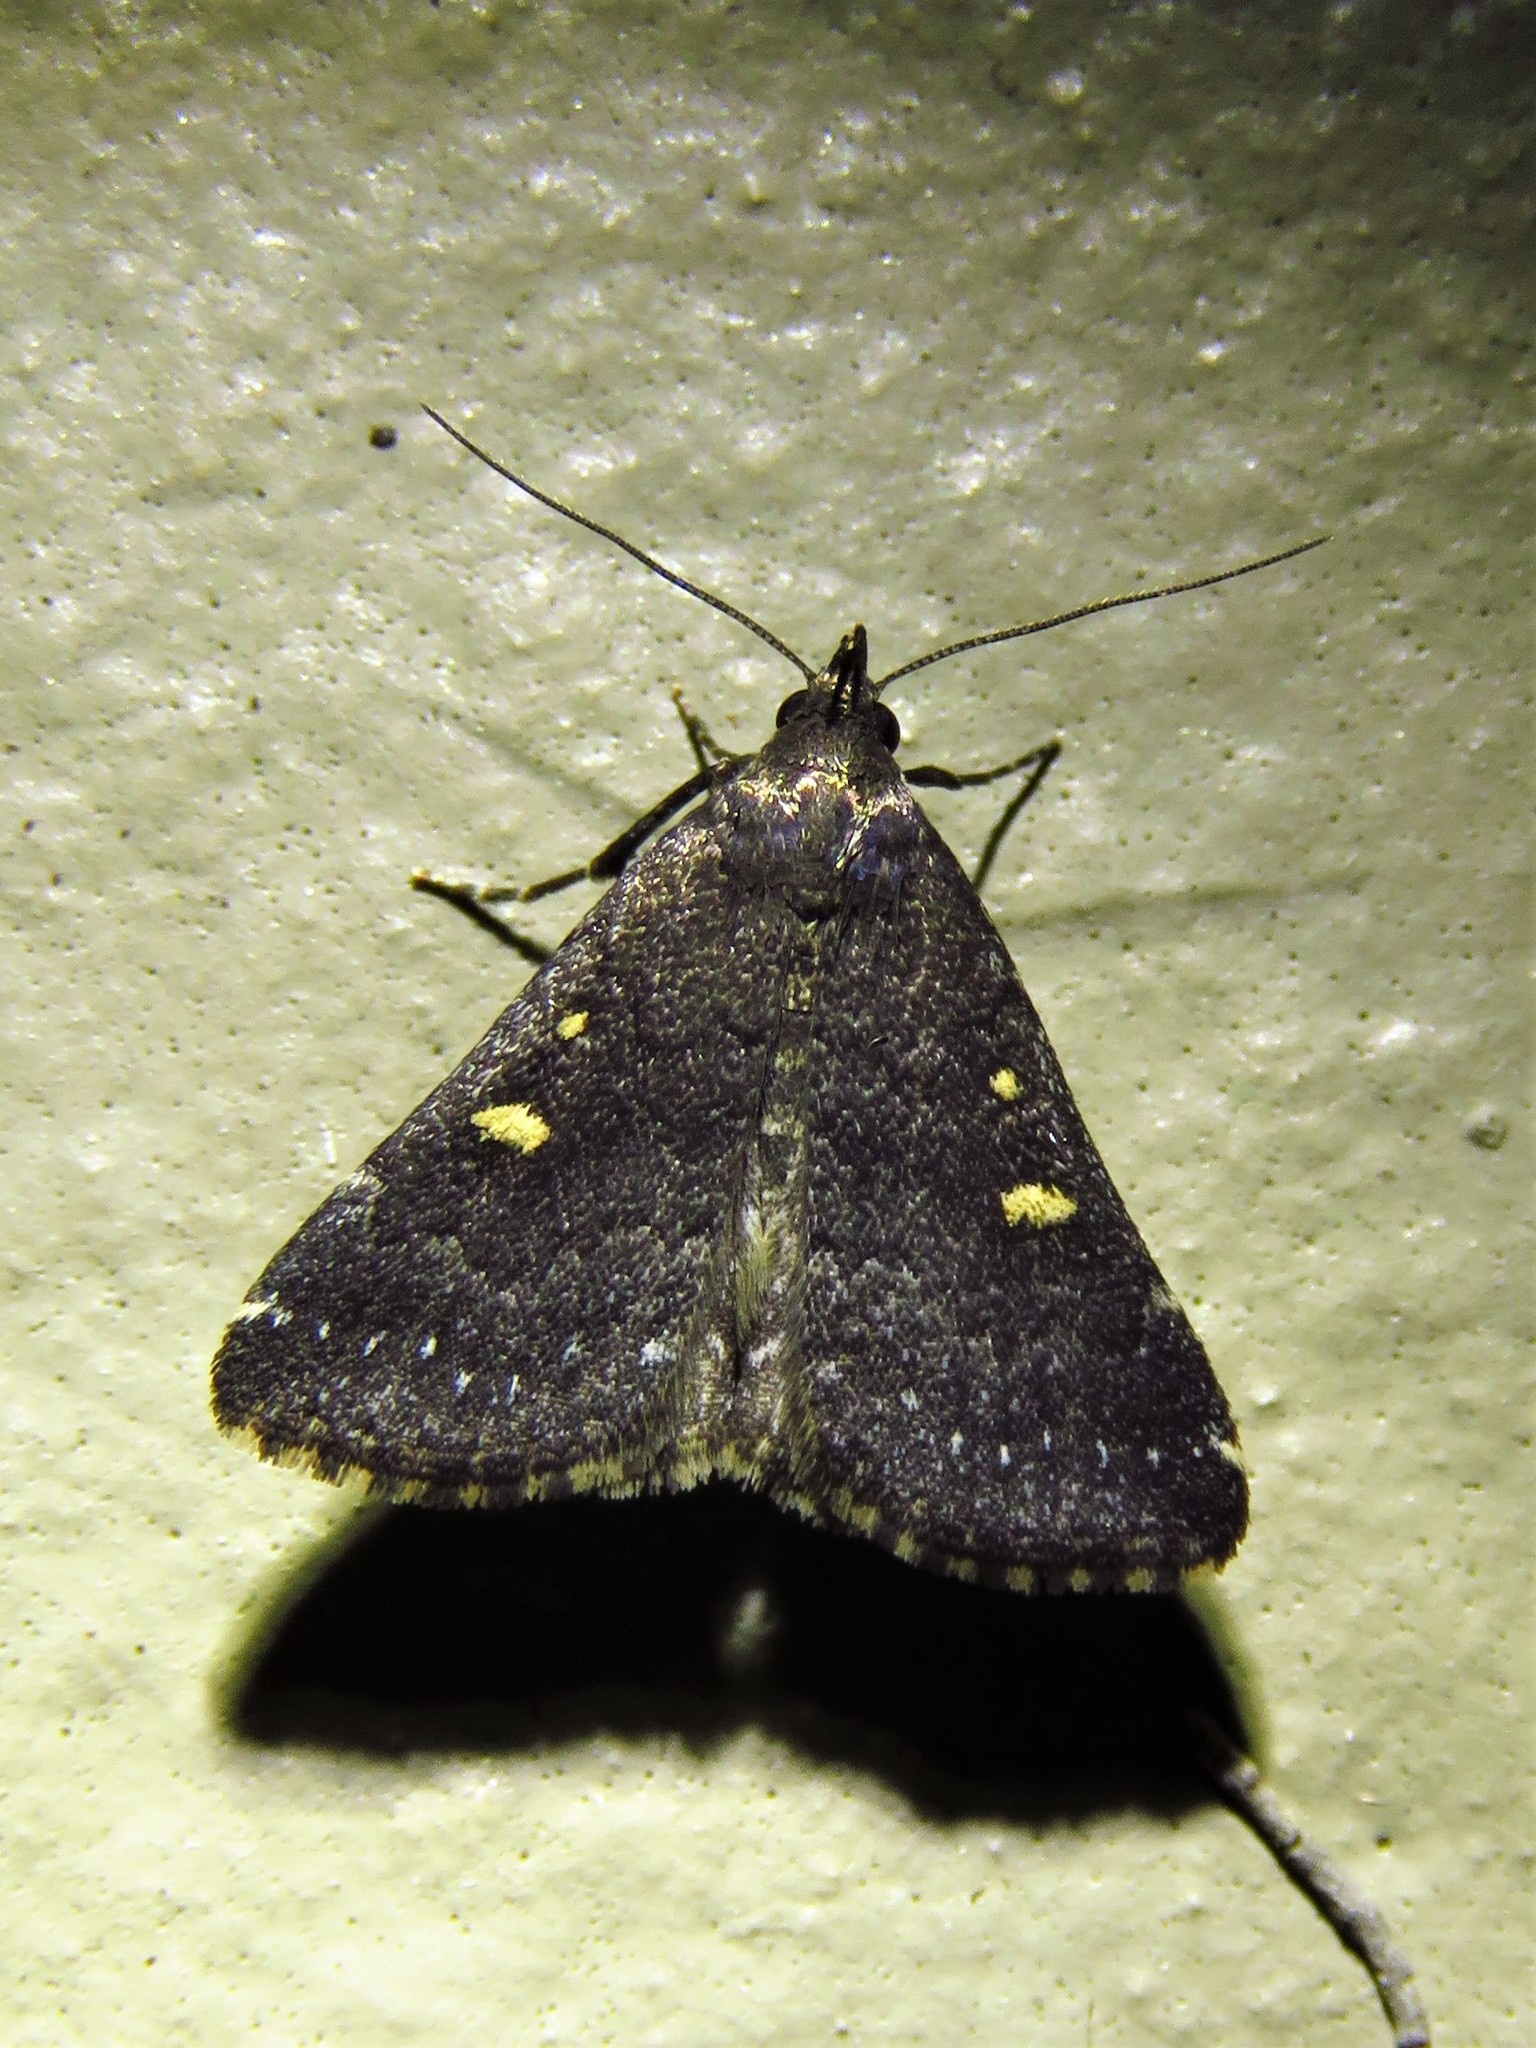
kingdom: Animalia
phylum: Arthropoda
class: Insecta
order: Lepidoptera
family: Erebidae
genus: Tetanolita
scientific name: Tetanolita mynesalis
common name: Smoky tetanolita moth
